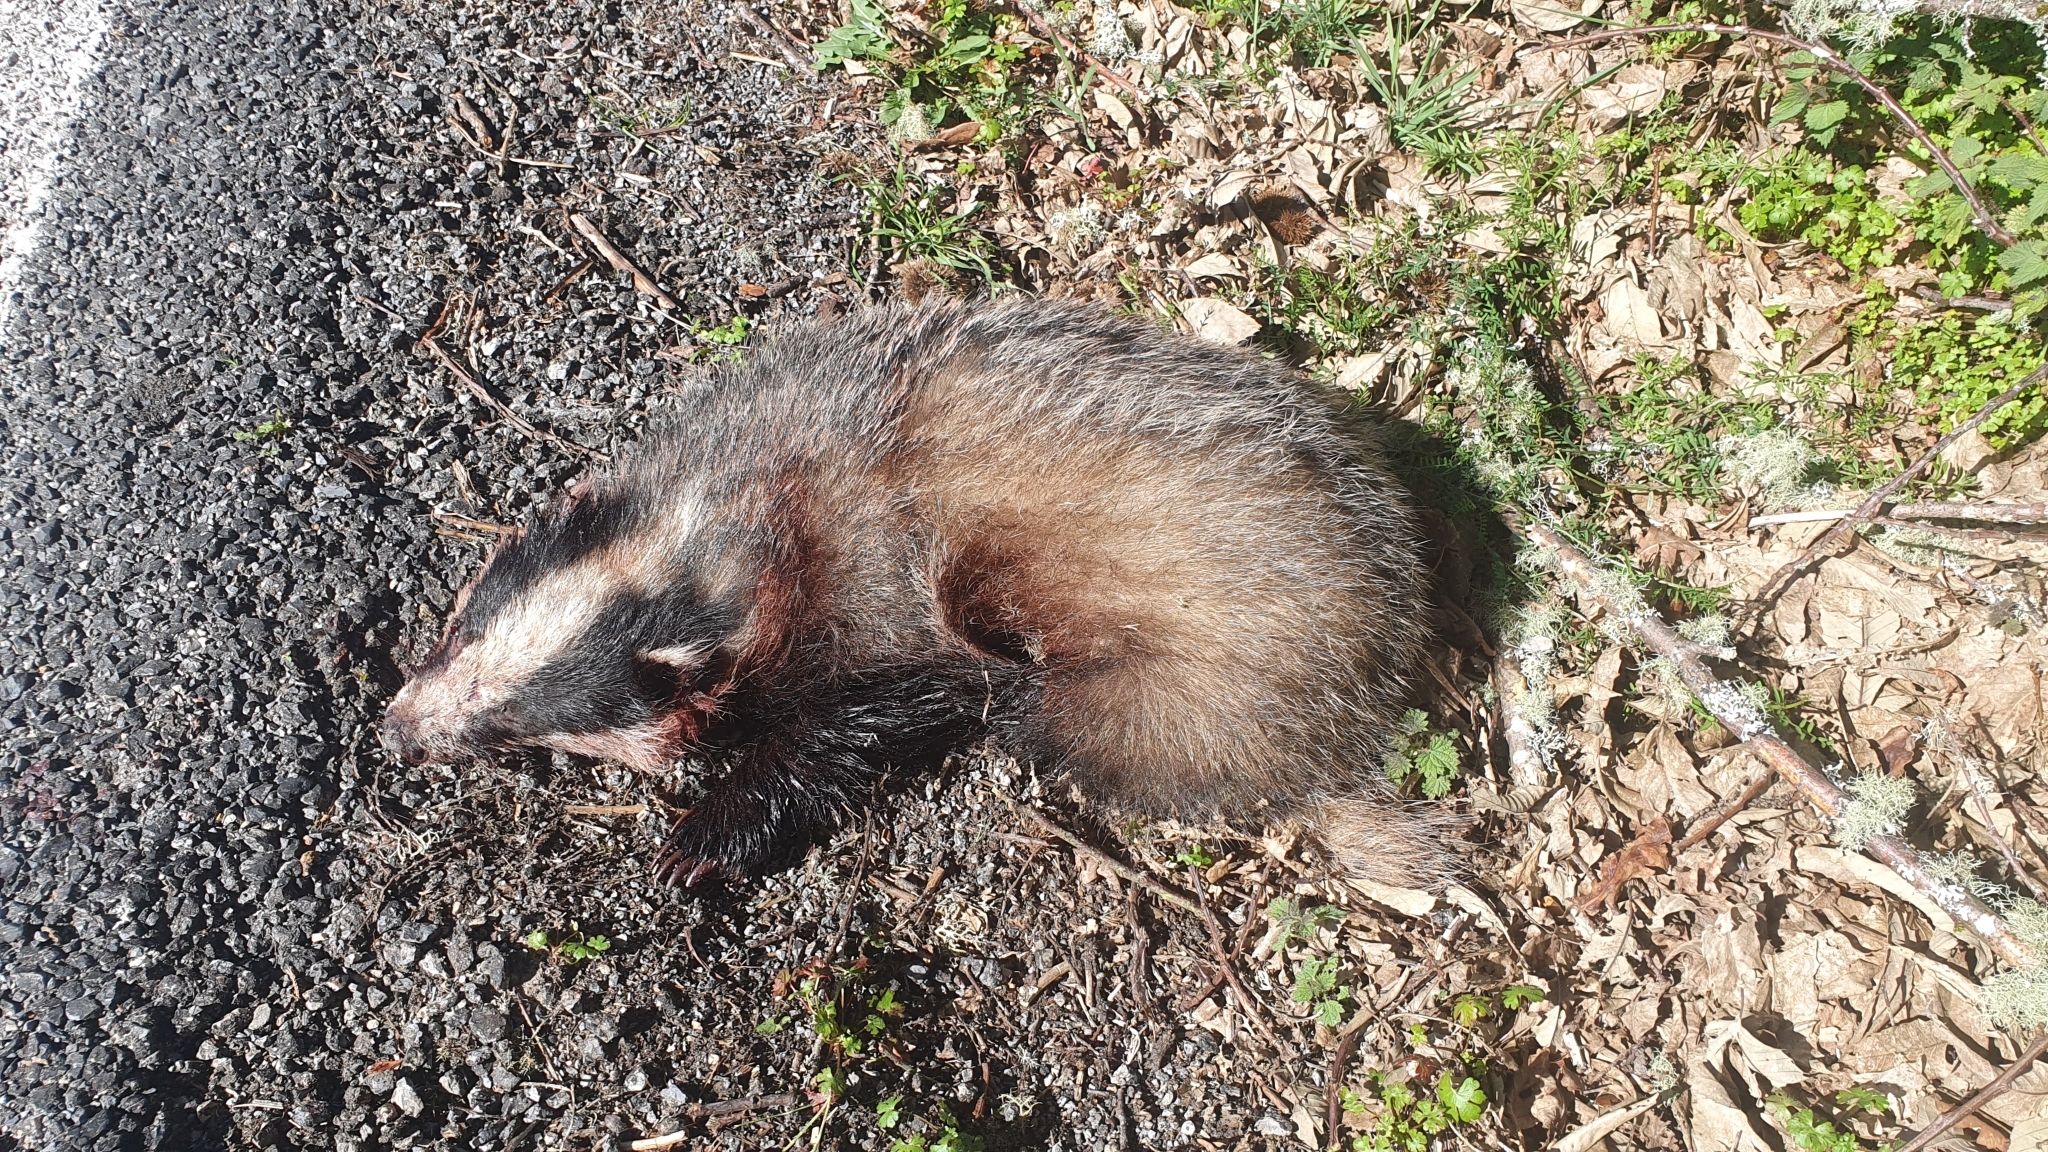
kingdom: Animalia
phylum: Chordata
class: Mammalia
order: Carnivora
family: Mustelidae
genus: Meles
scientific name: Meles meles
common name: Eurasian badger
